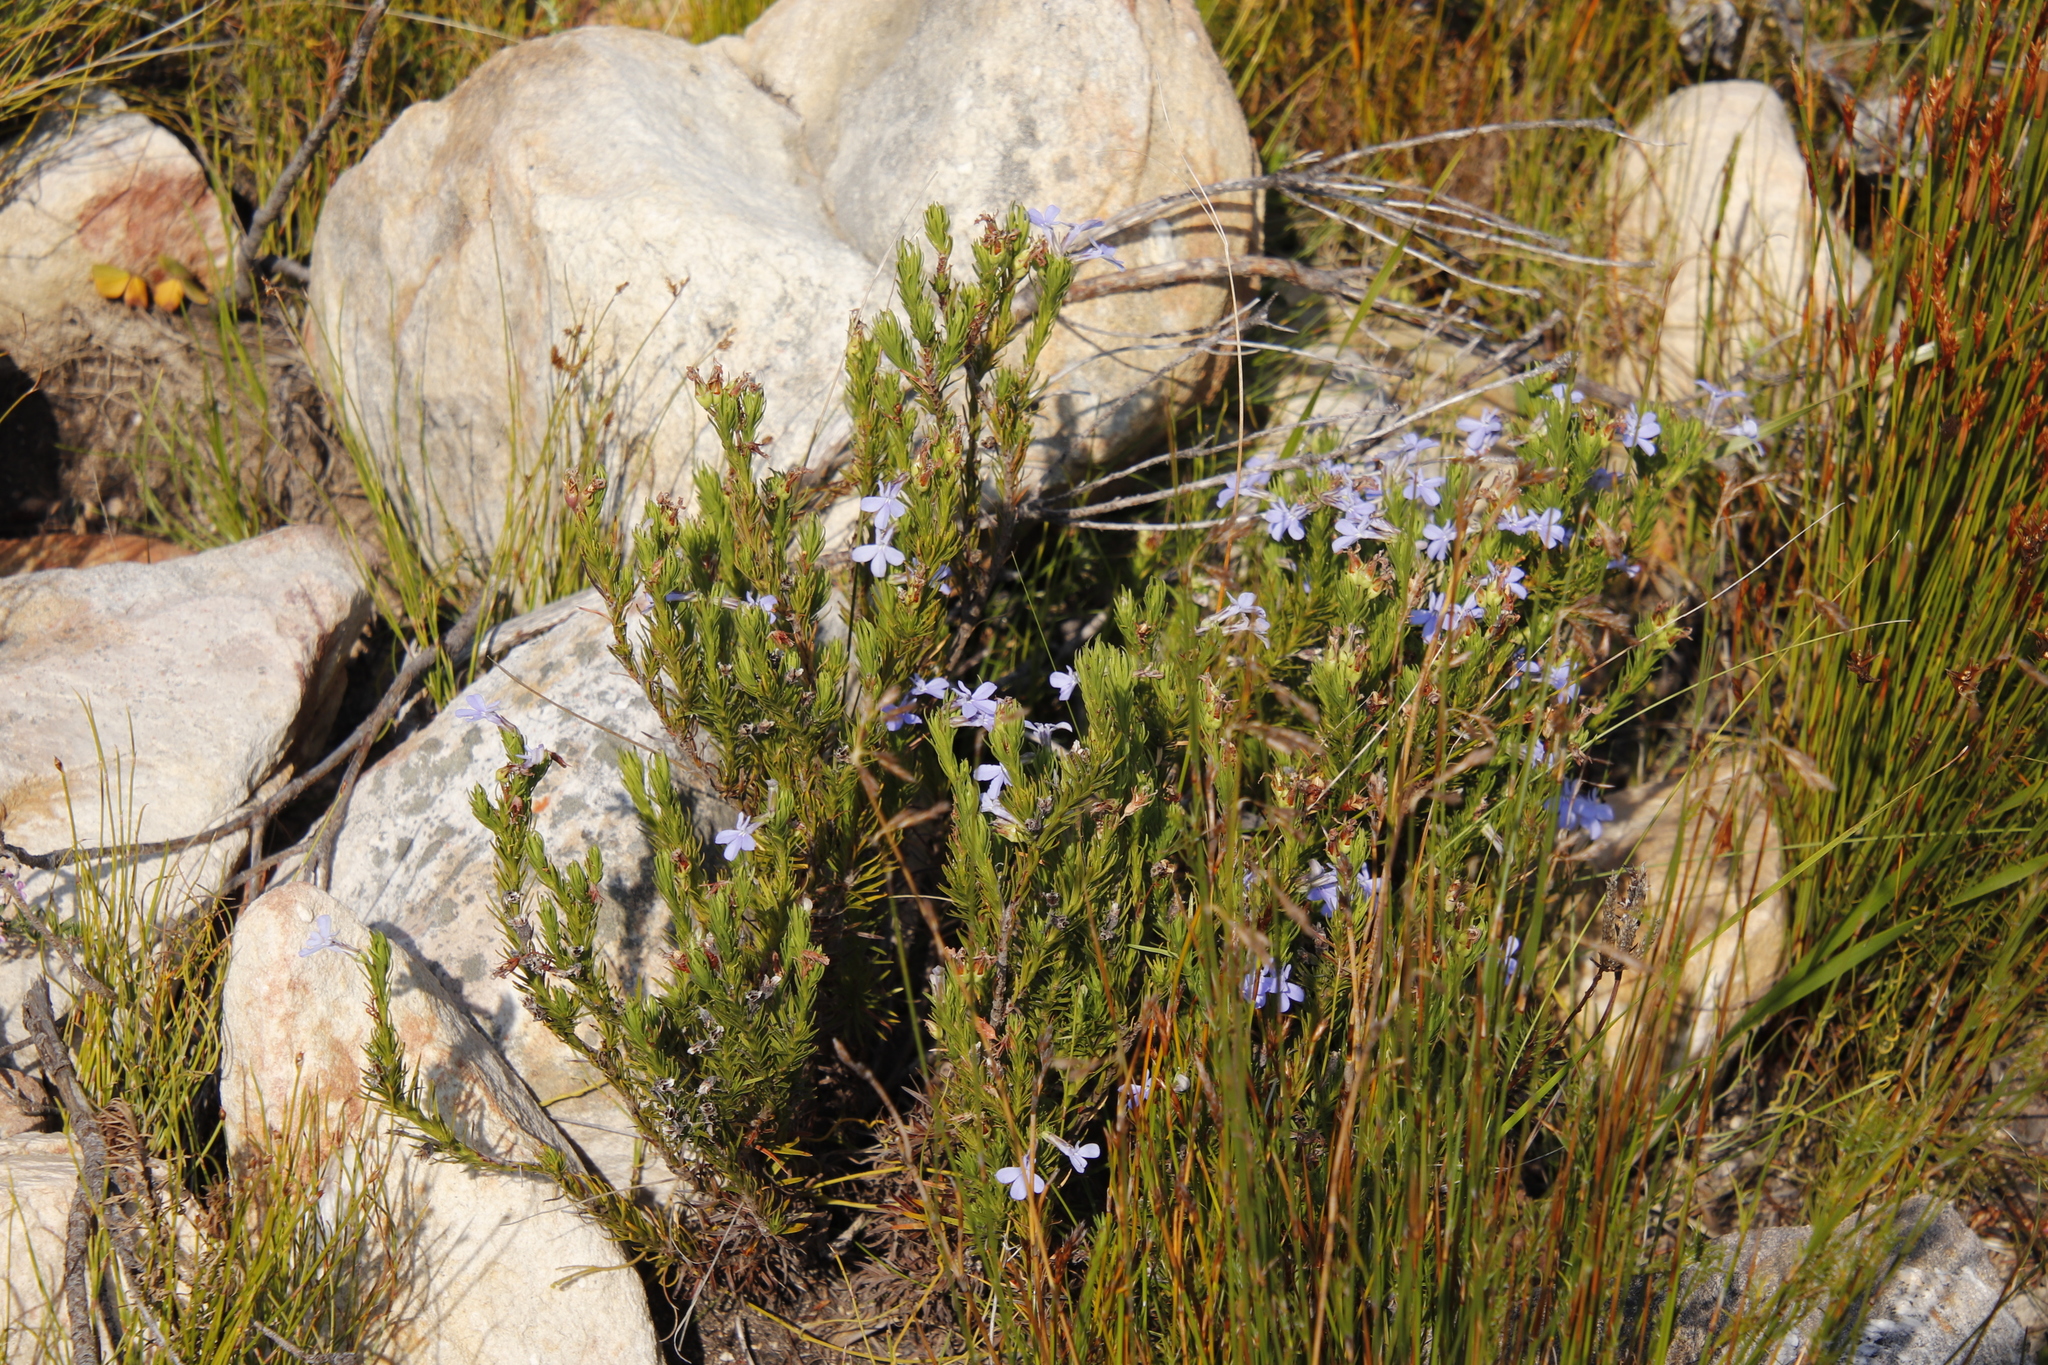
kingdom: Plantae
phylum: Tracheophyta
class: Magnoliopsida
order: Asterales
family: Campanulaceae
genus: Lobelia
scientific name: Lobelia pinifolia
